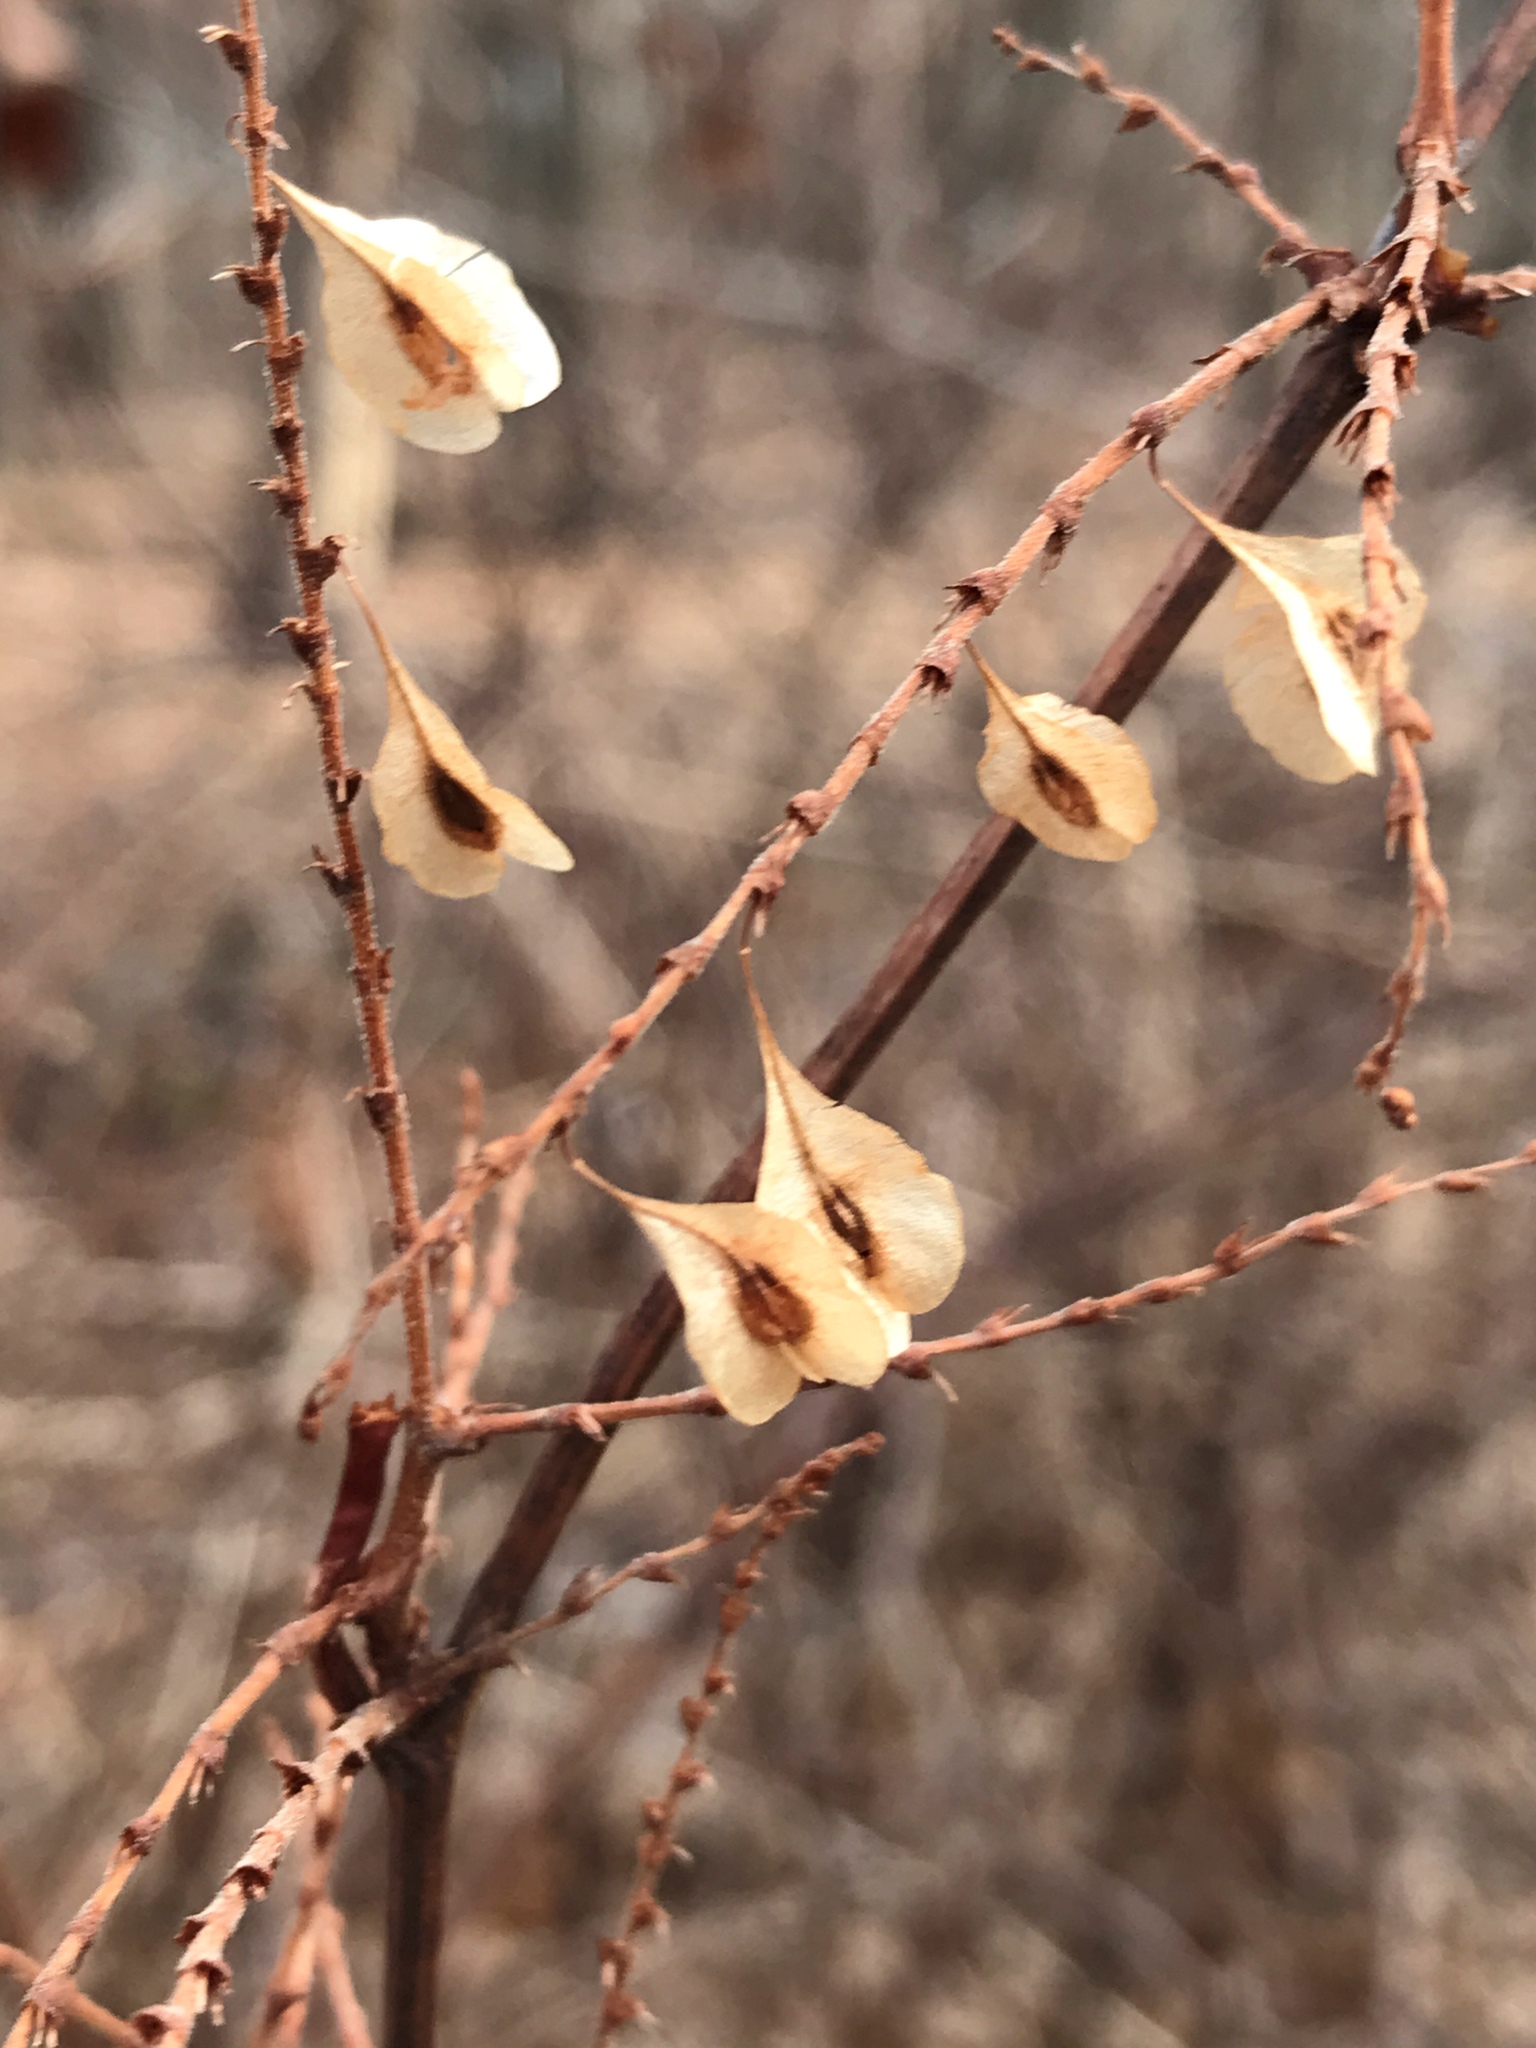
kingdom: Plantae
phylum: Tracheophyta
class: Magnoliopsida
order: Caryophyllales
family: Polygonaceae
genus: Reynoutria
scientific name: Reynoutria japonica
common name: Japanese knotweed
